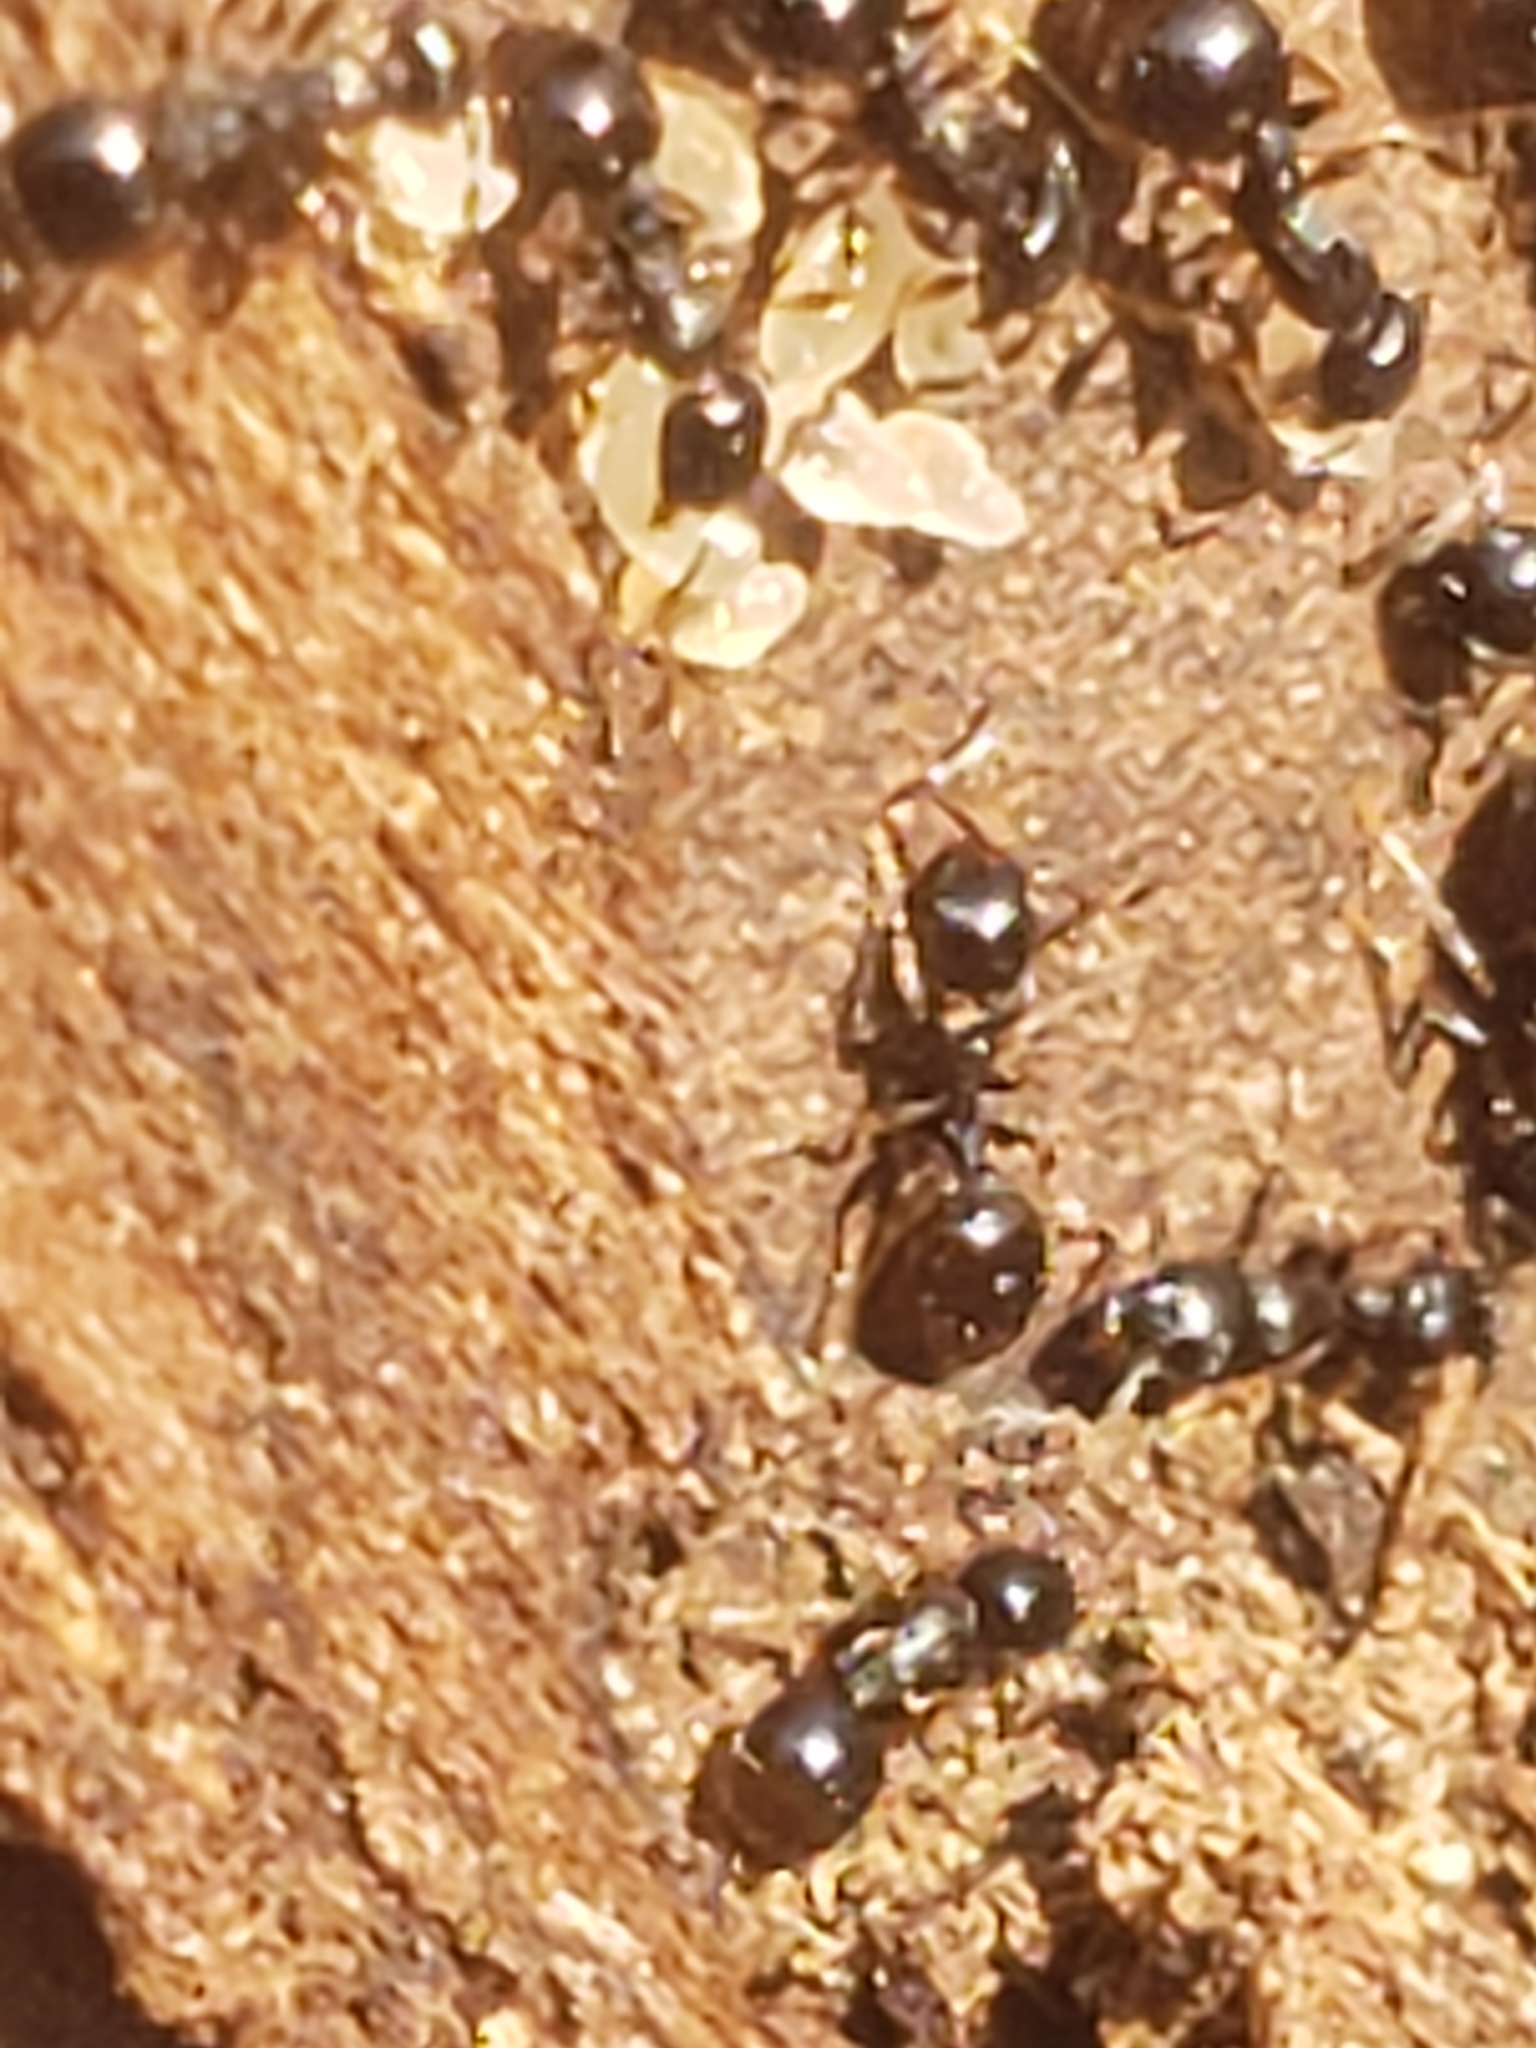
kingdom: Animalia
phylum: Arthropoda
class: Insecta
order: Hymenoptera
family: Formicidae
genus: Myrmecina
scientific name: Myrmecina americana
